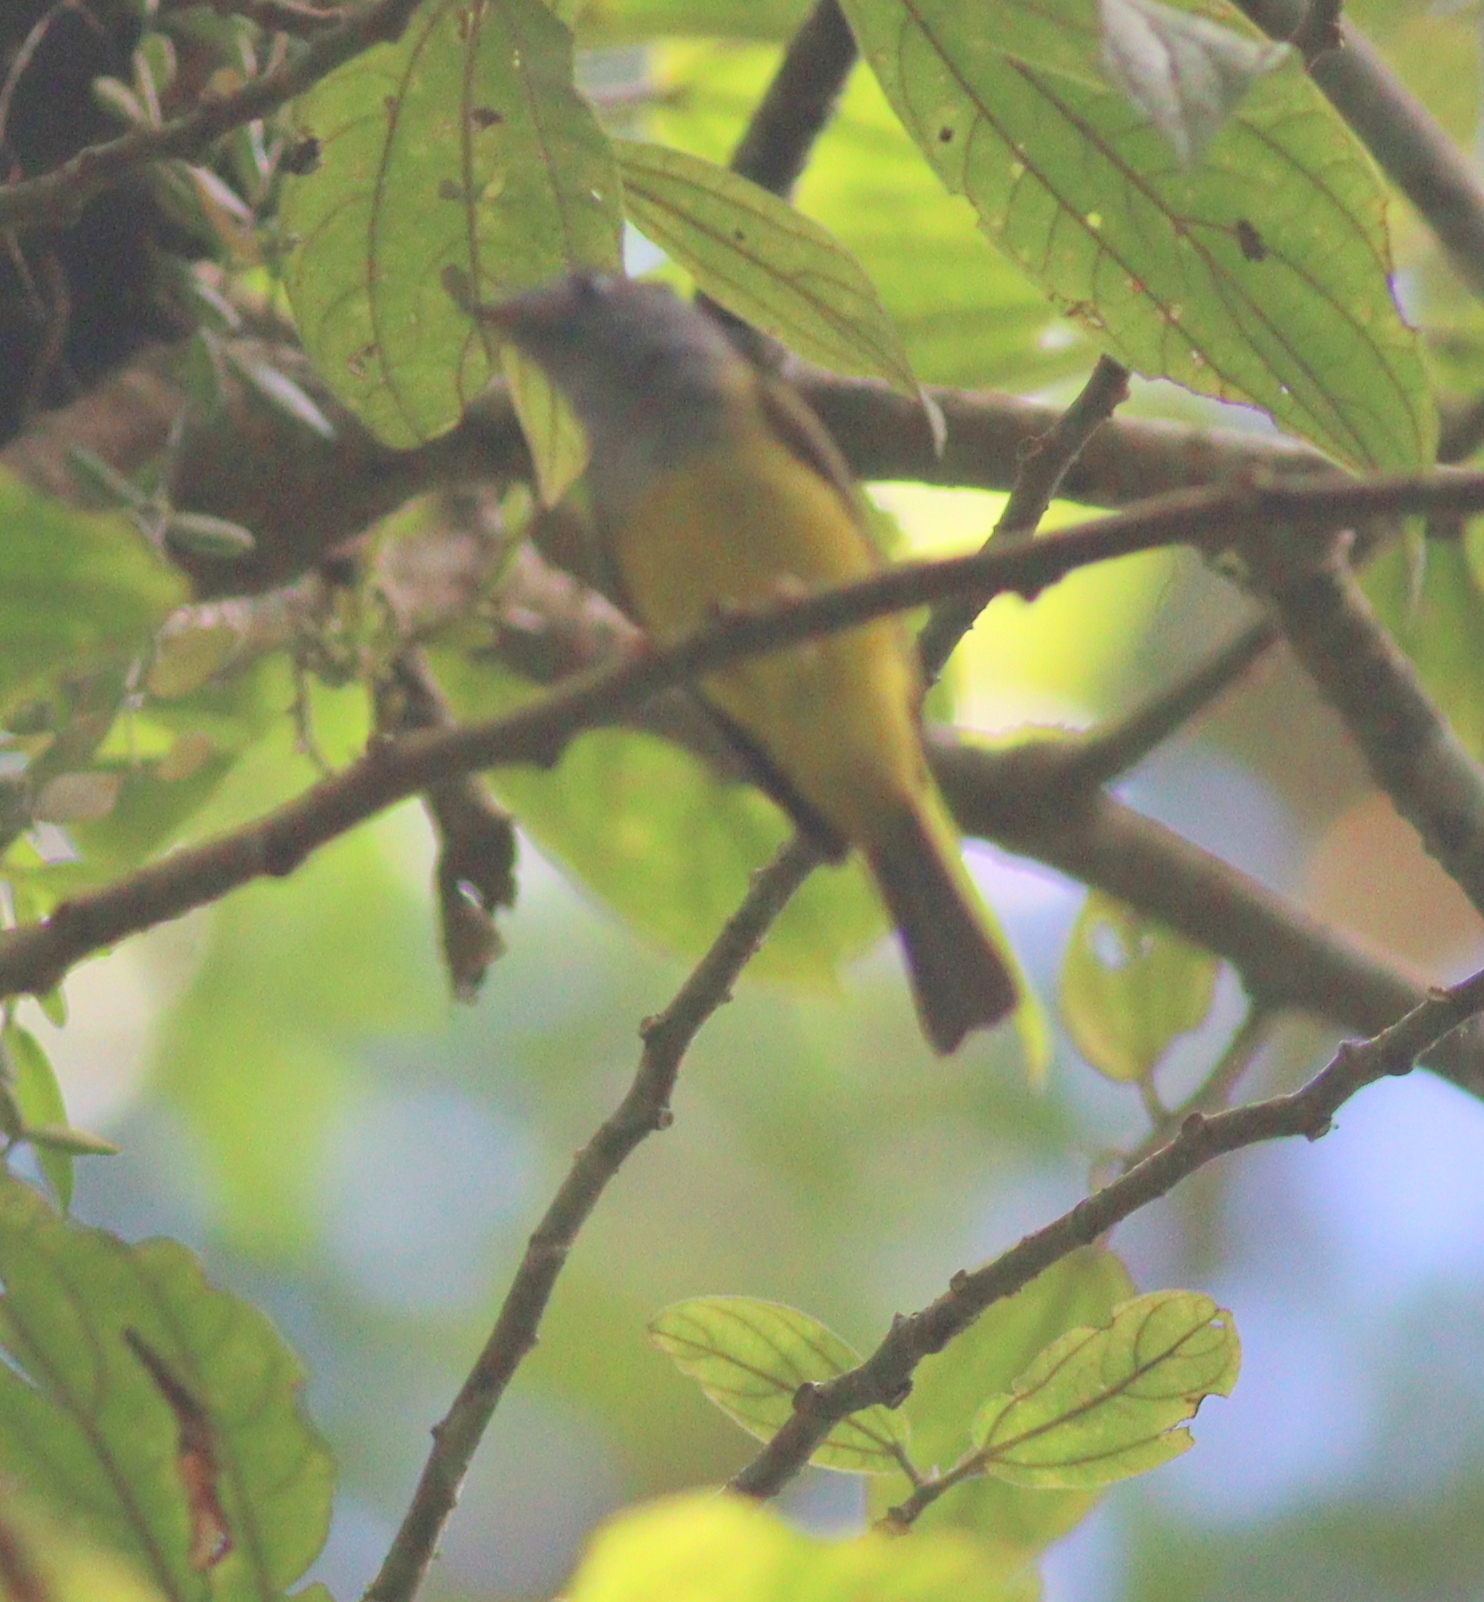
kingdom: Animalia
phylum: Chordata
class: Aves
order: Passeriformes
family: Stenostiridae
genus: Culicicapa
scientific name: Culicicapa ceylonensis
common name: Grey-headed canary-flycatcher
